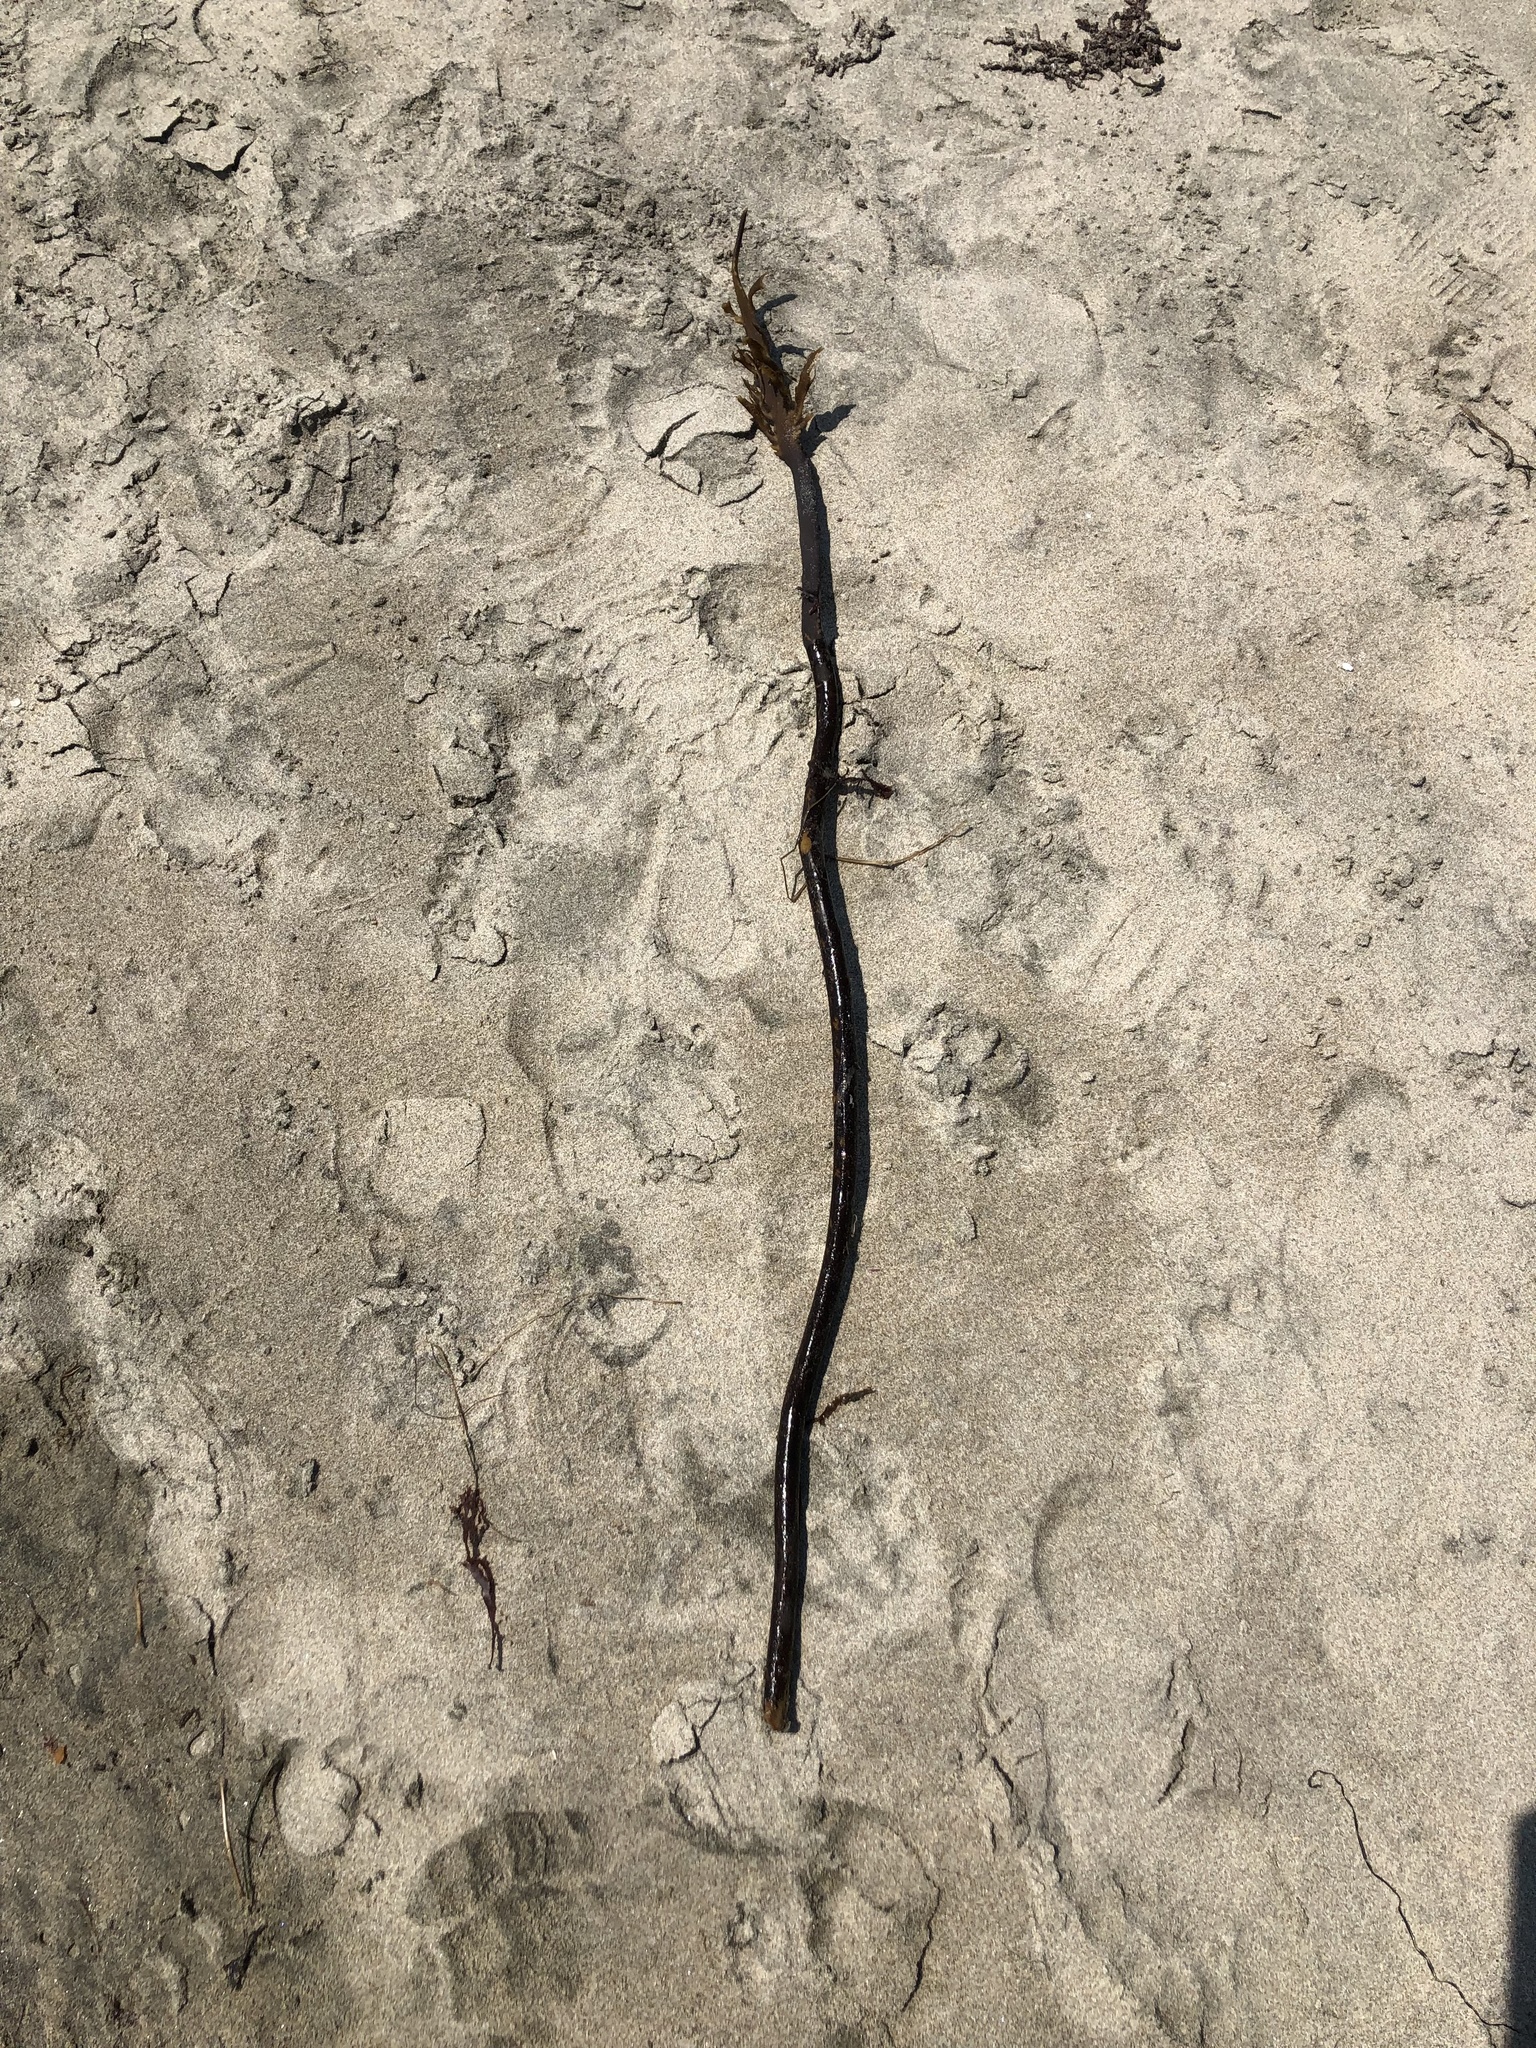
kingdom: Chromista
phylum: Ochrophyta
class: Phaeophyceae
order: Laminariales
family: Alariaceae
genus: Pterygophora
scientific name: Pterygophora californica
